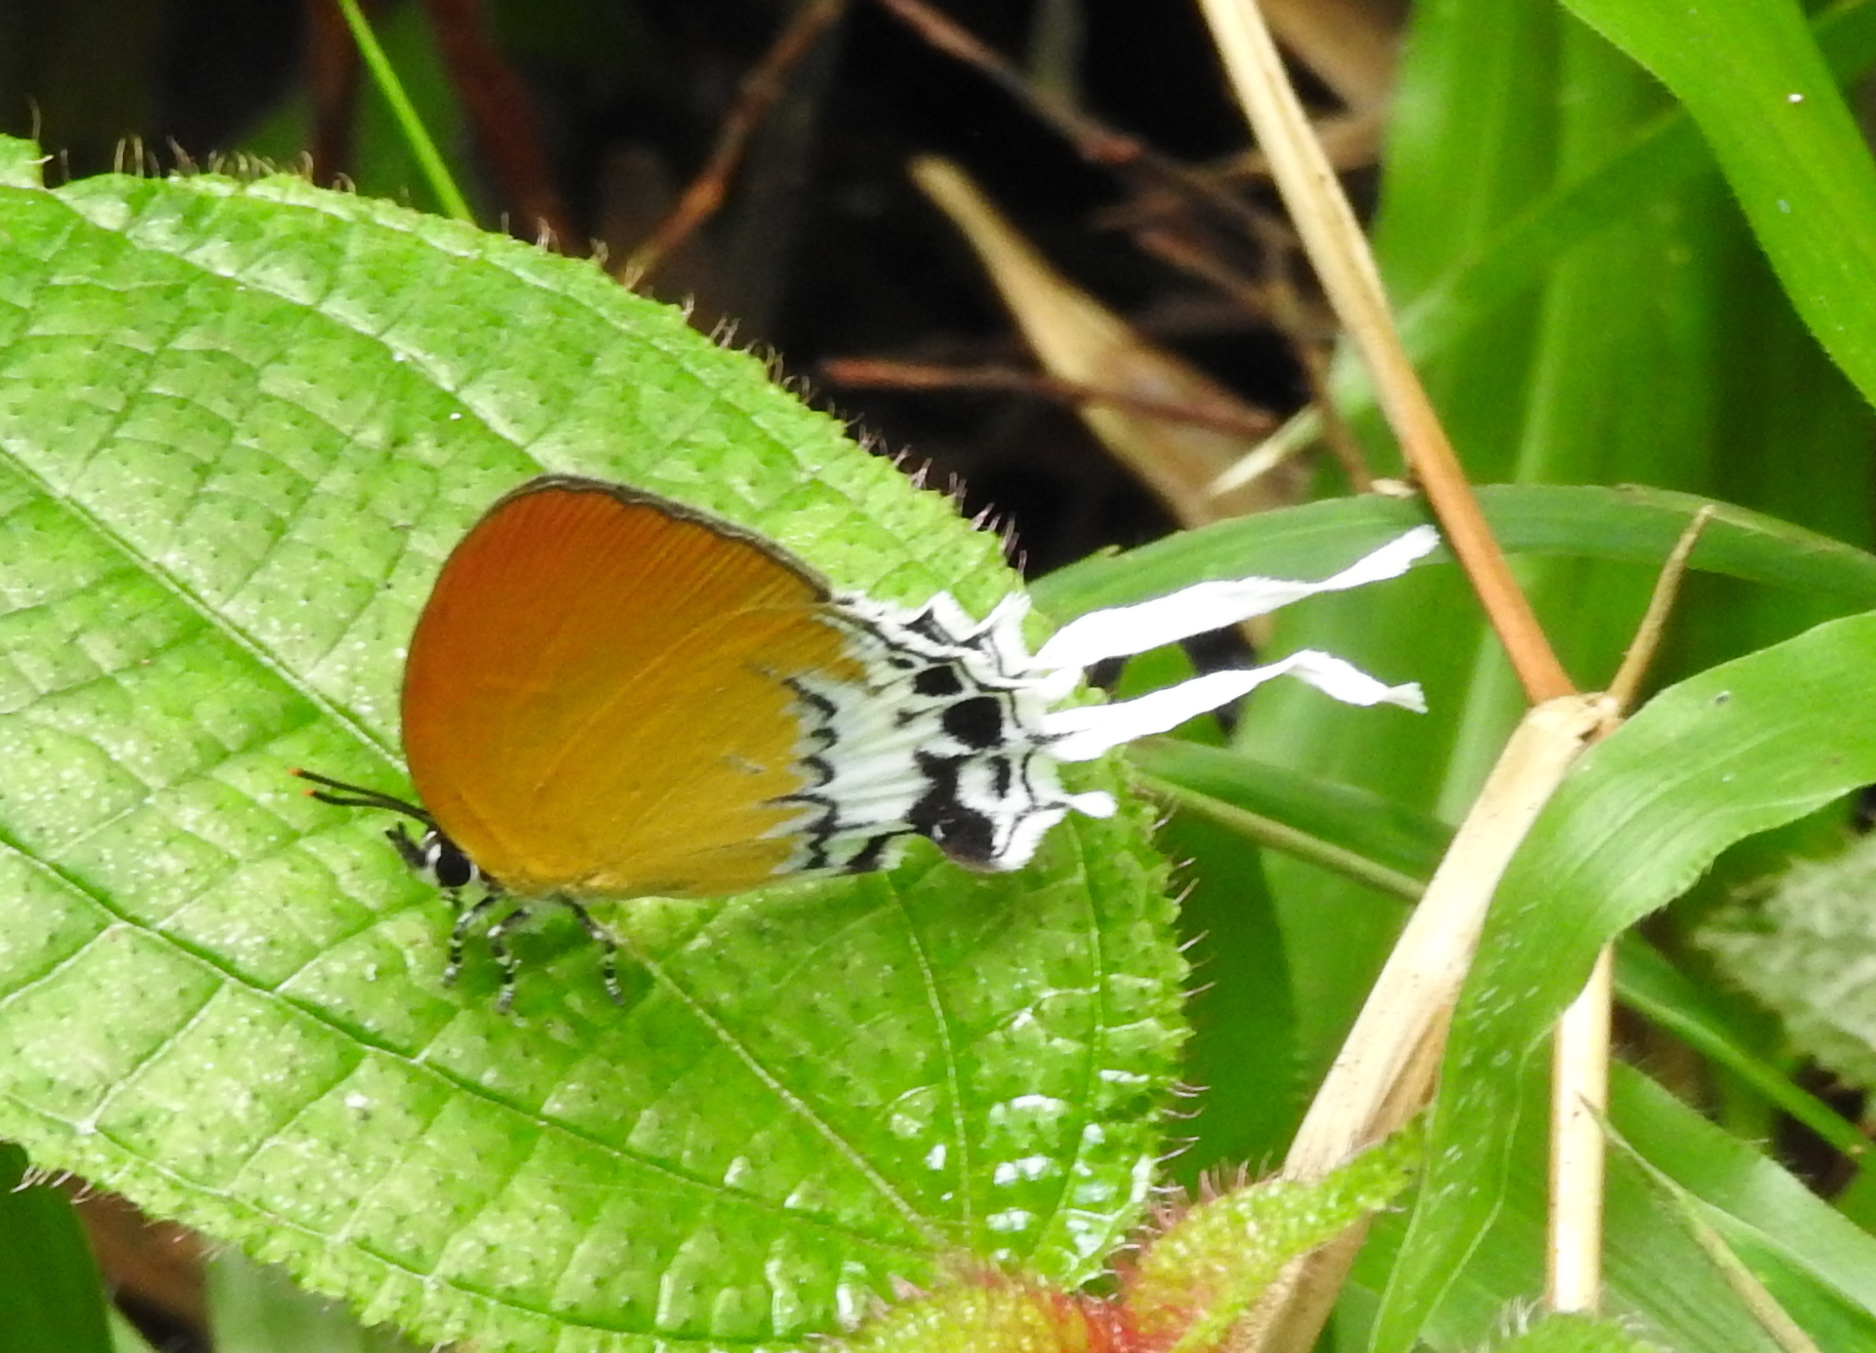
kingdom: Animalia
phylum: Arthropoda
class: Insecta
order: Lepidoptera
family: Lycaenidae
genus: Eooxylides
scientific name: Eooxylides tharis
